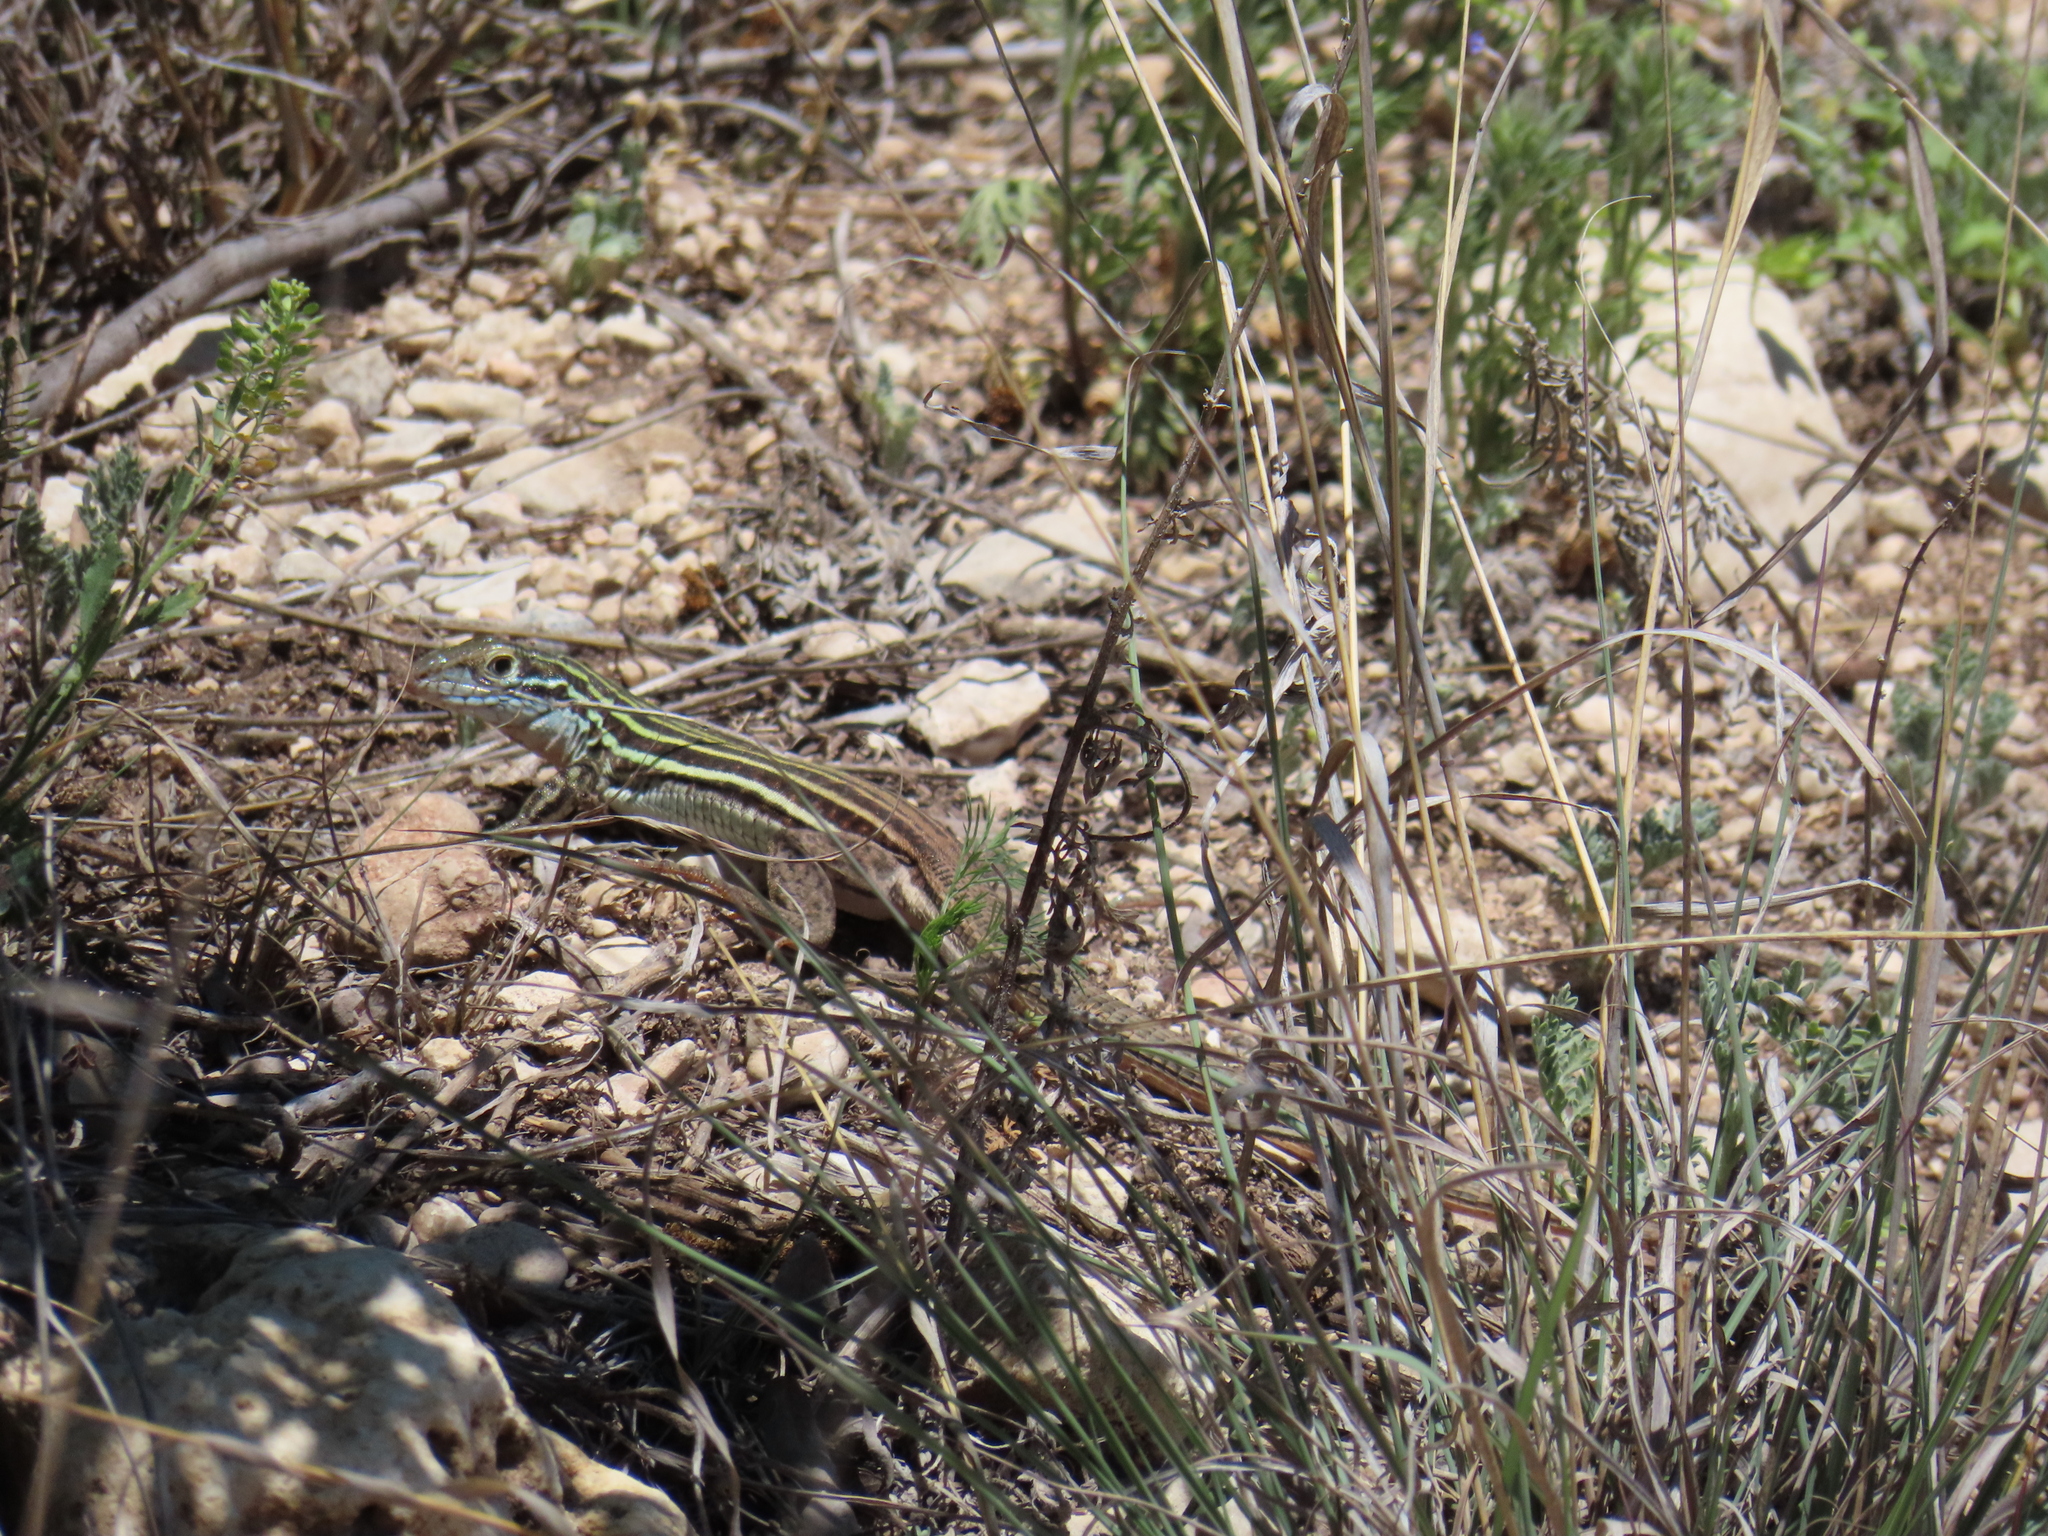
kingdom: Animalia
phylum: Chordata
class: Squamata
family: Teiidae
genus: Aspidoscelis
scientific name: Aspidoscelis gularis
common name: Eastern spotted whiptail
